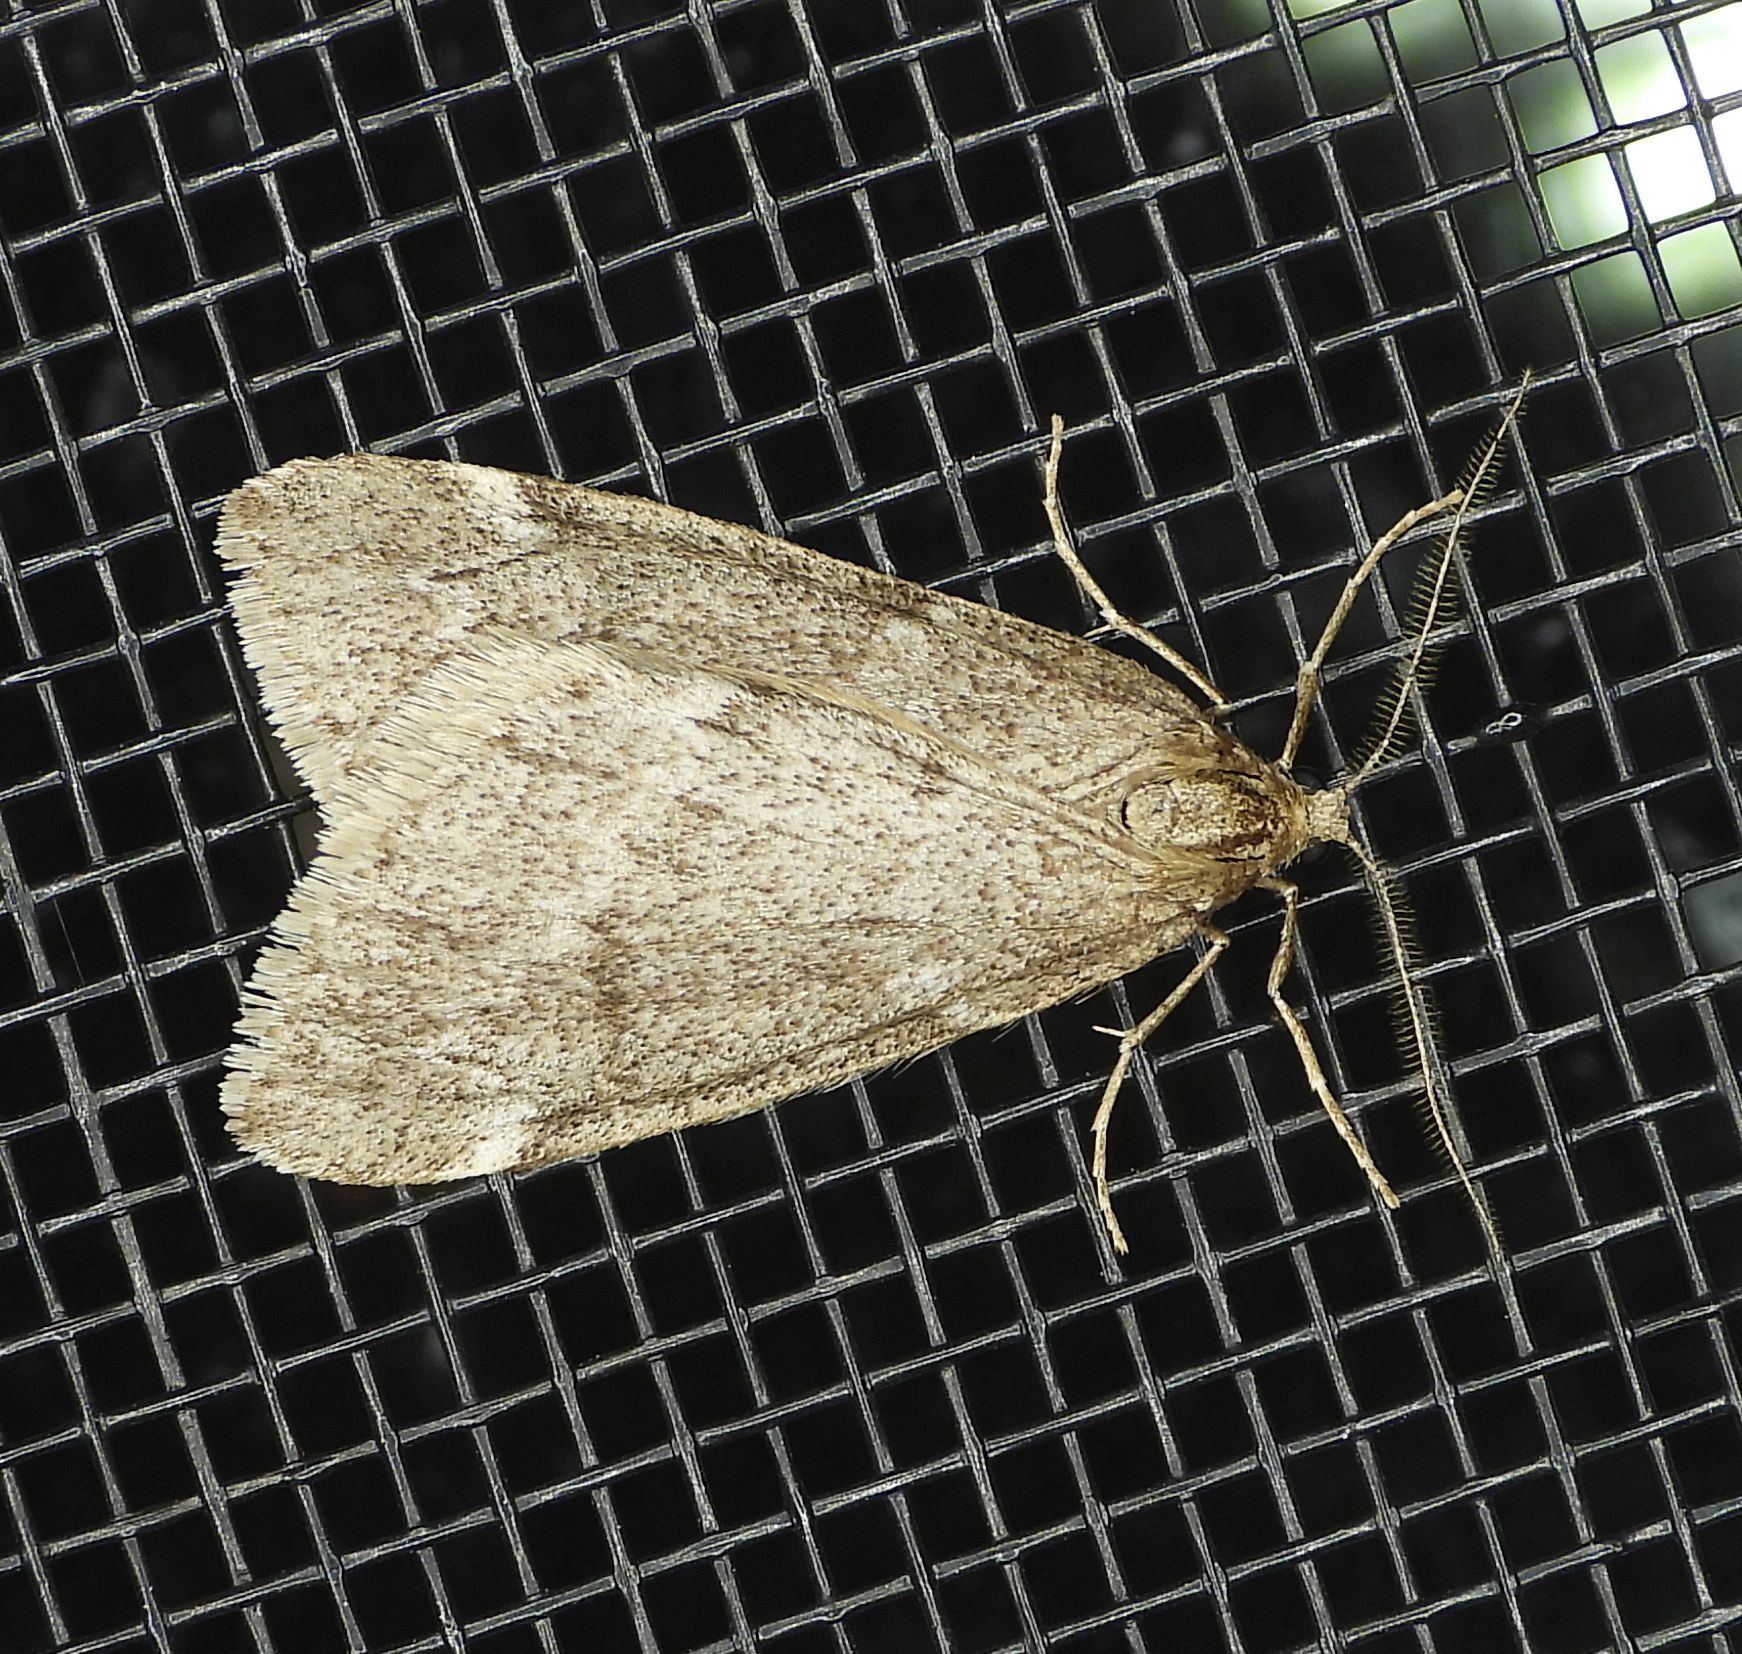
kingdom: Animalia
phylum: Arthropoda
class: Insecta
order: Lepidoptera
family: Geometridae
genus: Alsophila
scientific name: Alsophila pometaria
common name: Fall cankerworm
